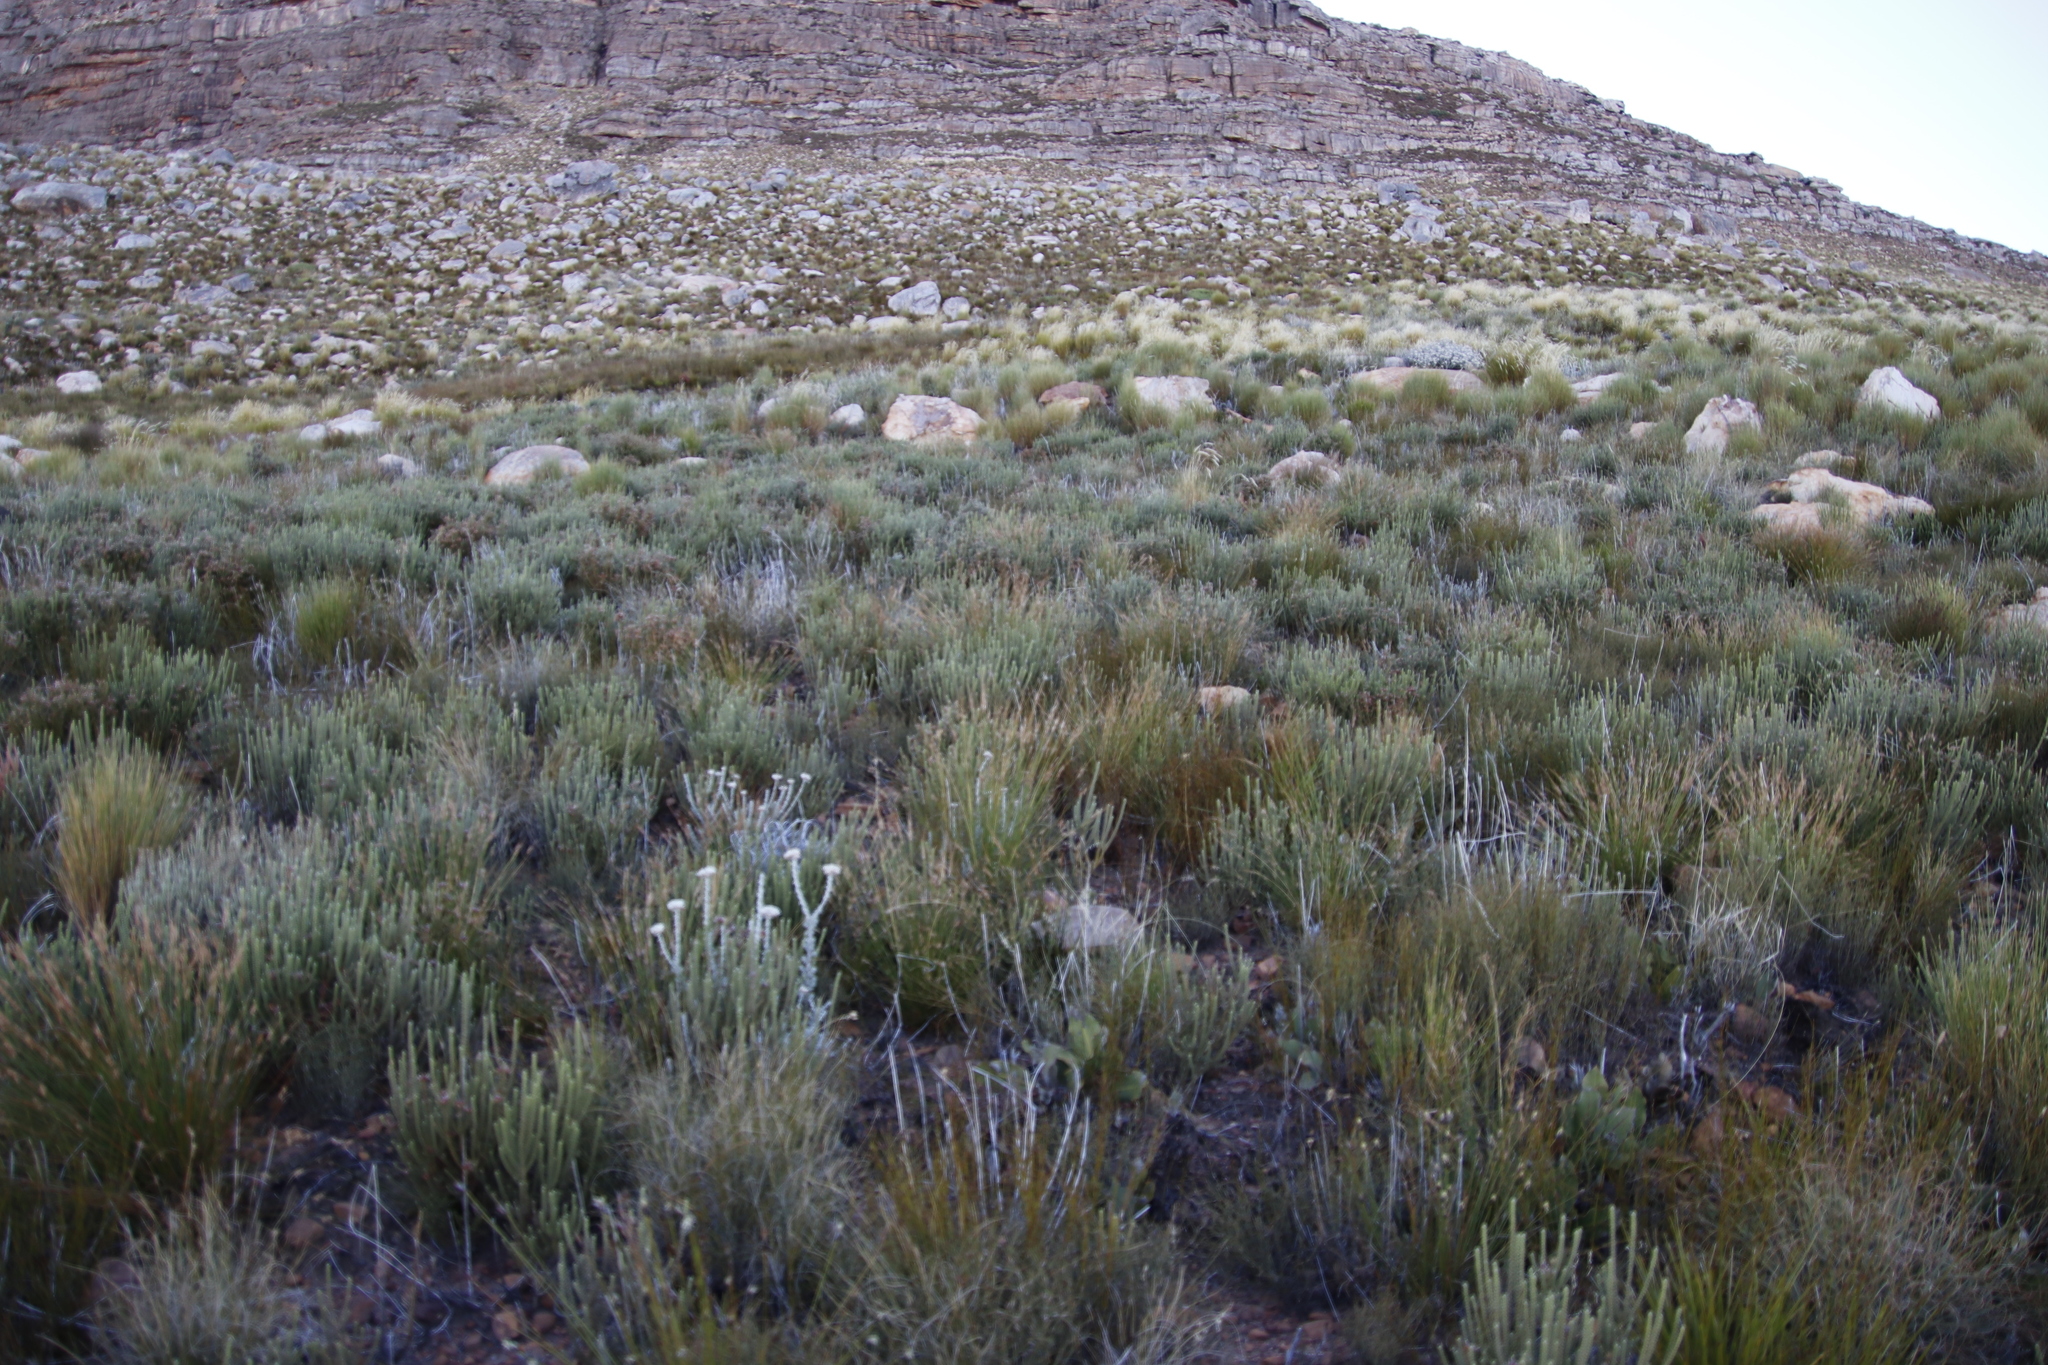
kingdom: Plantae
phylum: Tracheophyta
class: Magnoliopsida
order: Fabales
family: Fabaceae
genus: Aspalathus
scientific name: Aspalathus triquetra
